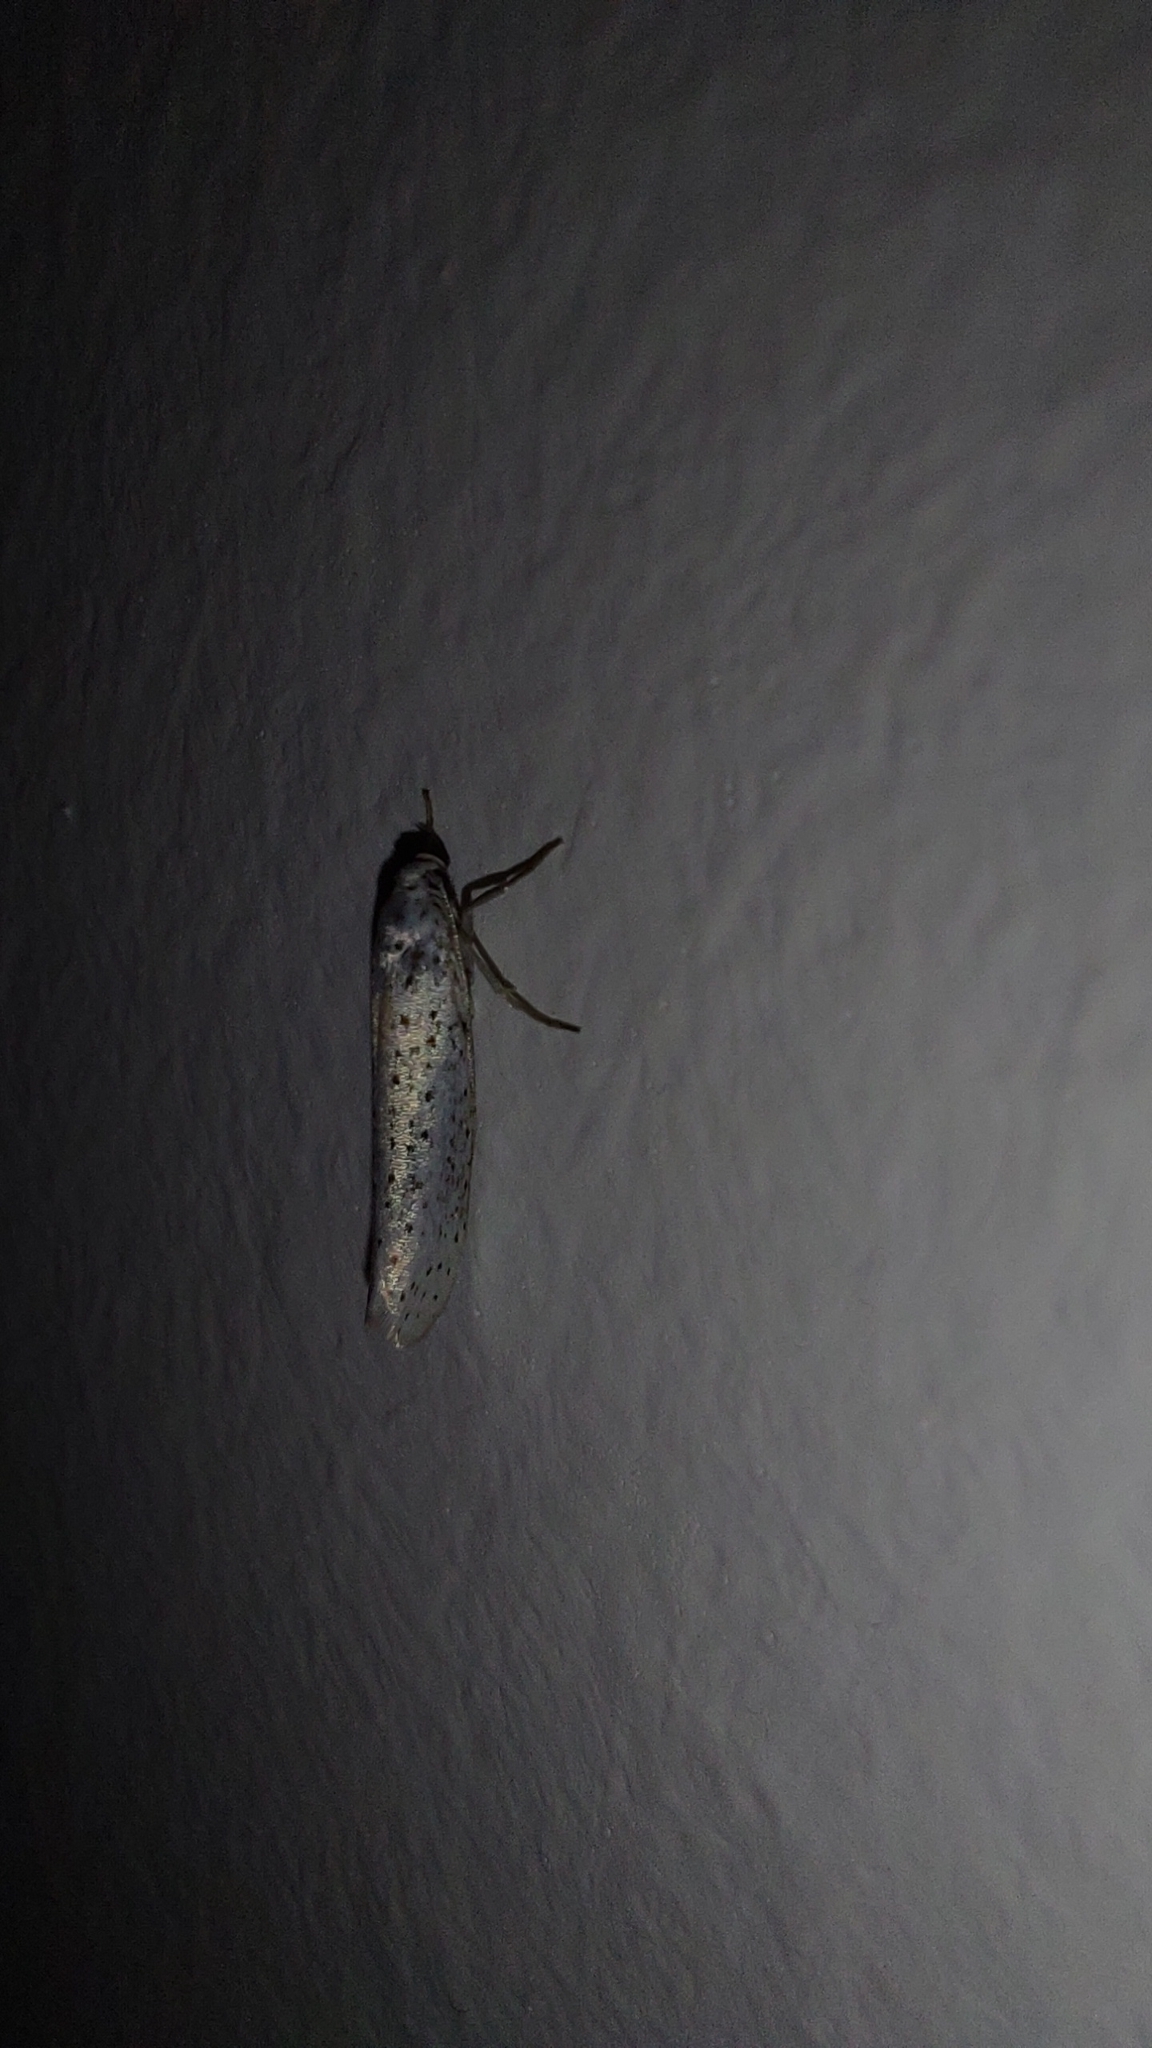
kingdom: Animalia
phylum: Arthropoda
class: Insecta
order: Lepidoptera
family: Yponomeutidae
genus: Yponomeuta
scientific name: Yponomeuta evonymella
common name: Bird-cherry ermine
